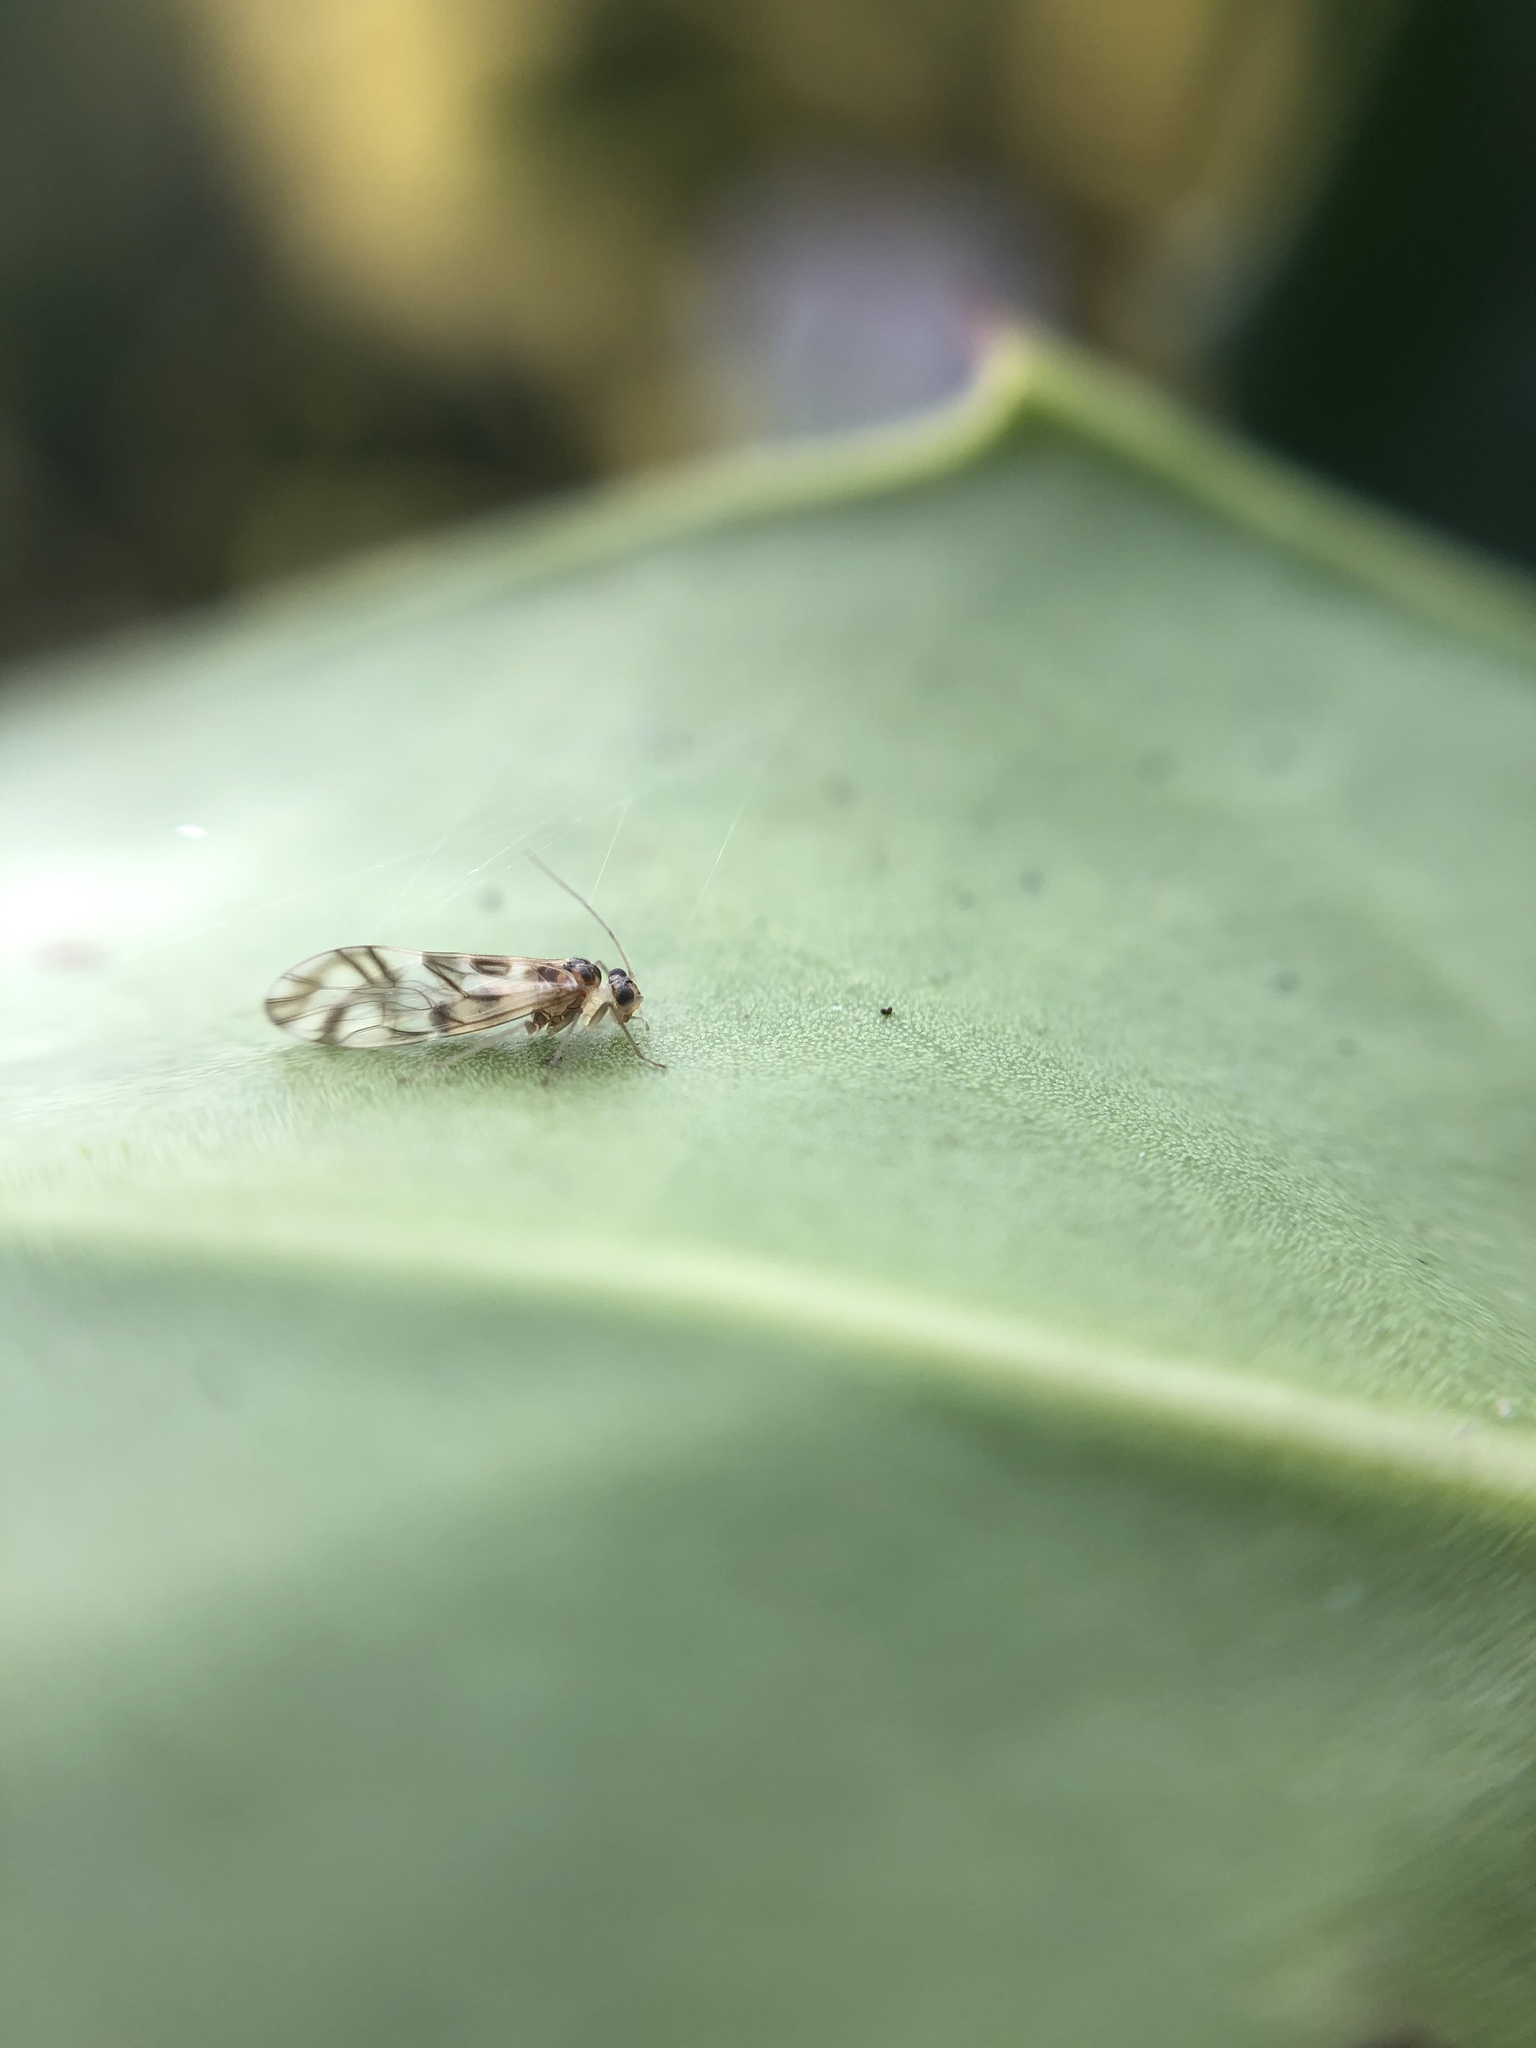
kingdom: Animalia
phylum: Arthropoda
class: Insecta
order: Psocodea
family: Stenopsocidae
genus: Graphopsocus
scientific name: Graphopsocus cruciatus
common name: Lizard bark louse
